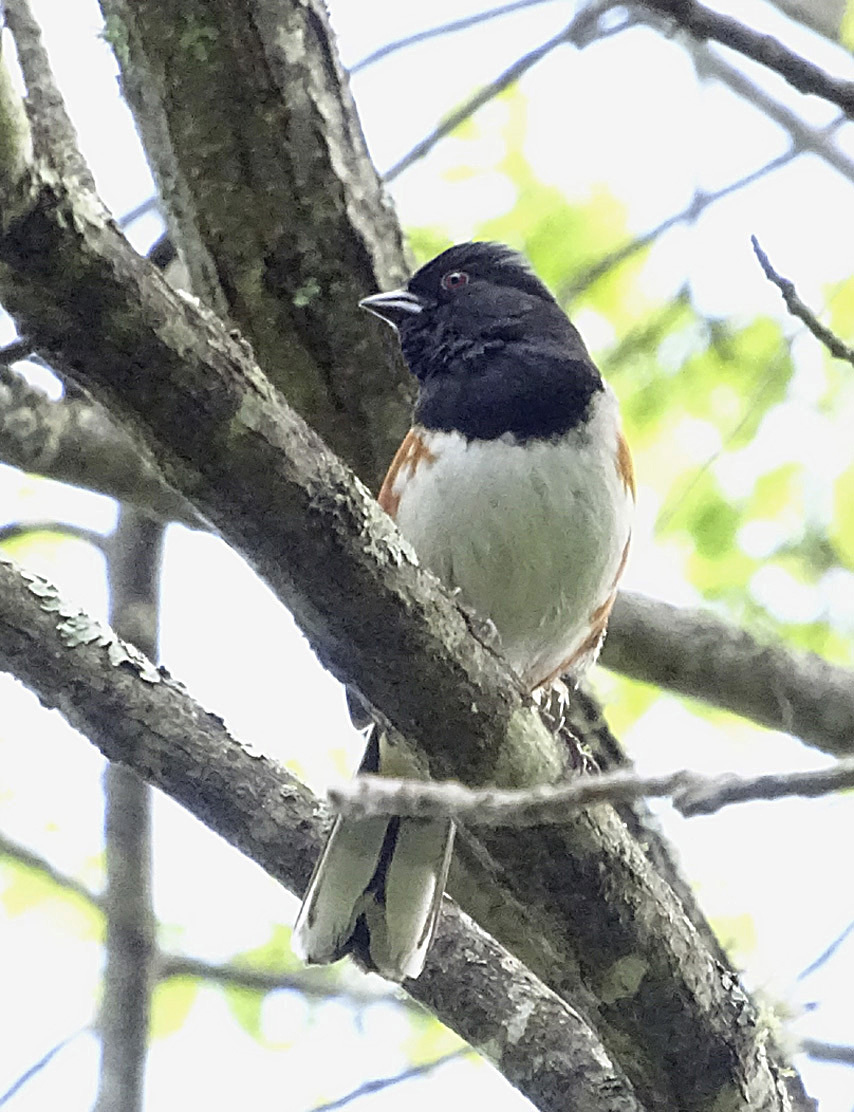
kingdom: Animalia
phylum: Chordata
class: Aves
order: Passeriformes
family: Passerellidae
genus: Pipilo
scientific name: Pipilo erythrophthalmus
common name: Eastern towhee
